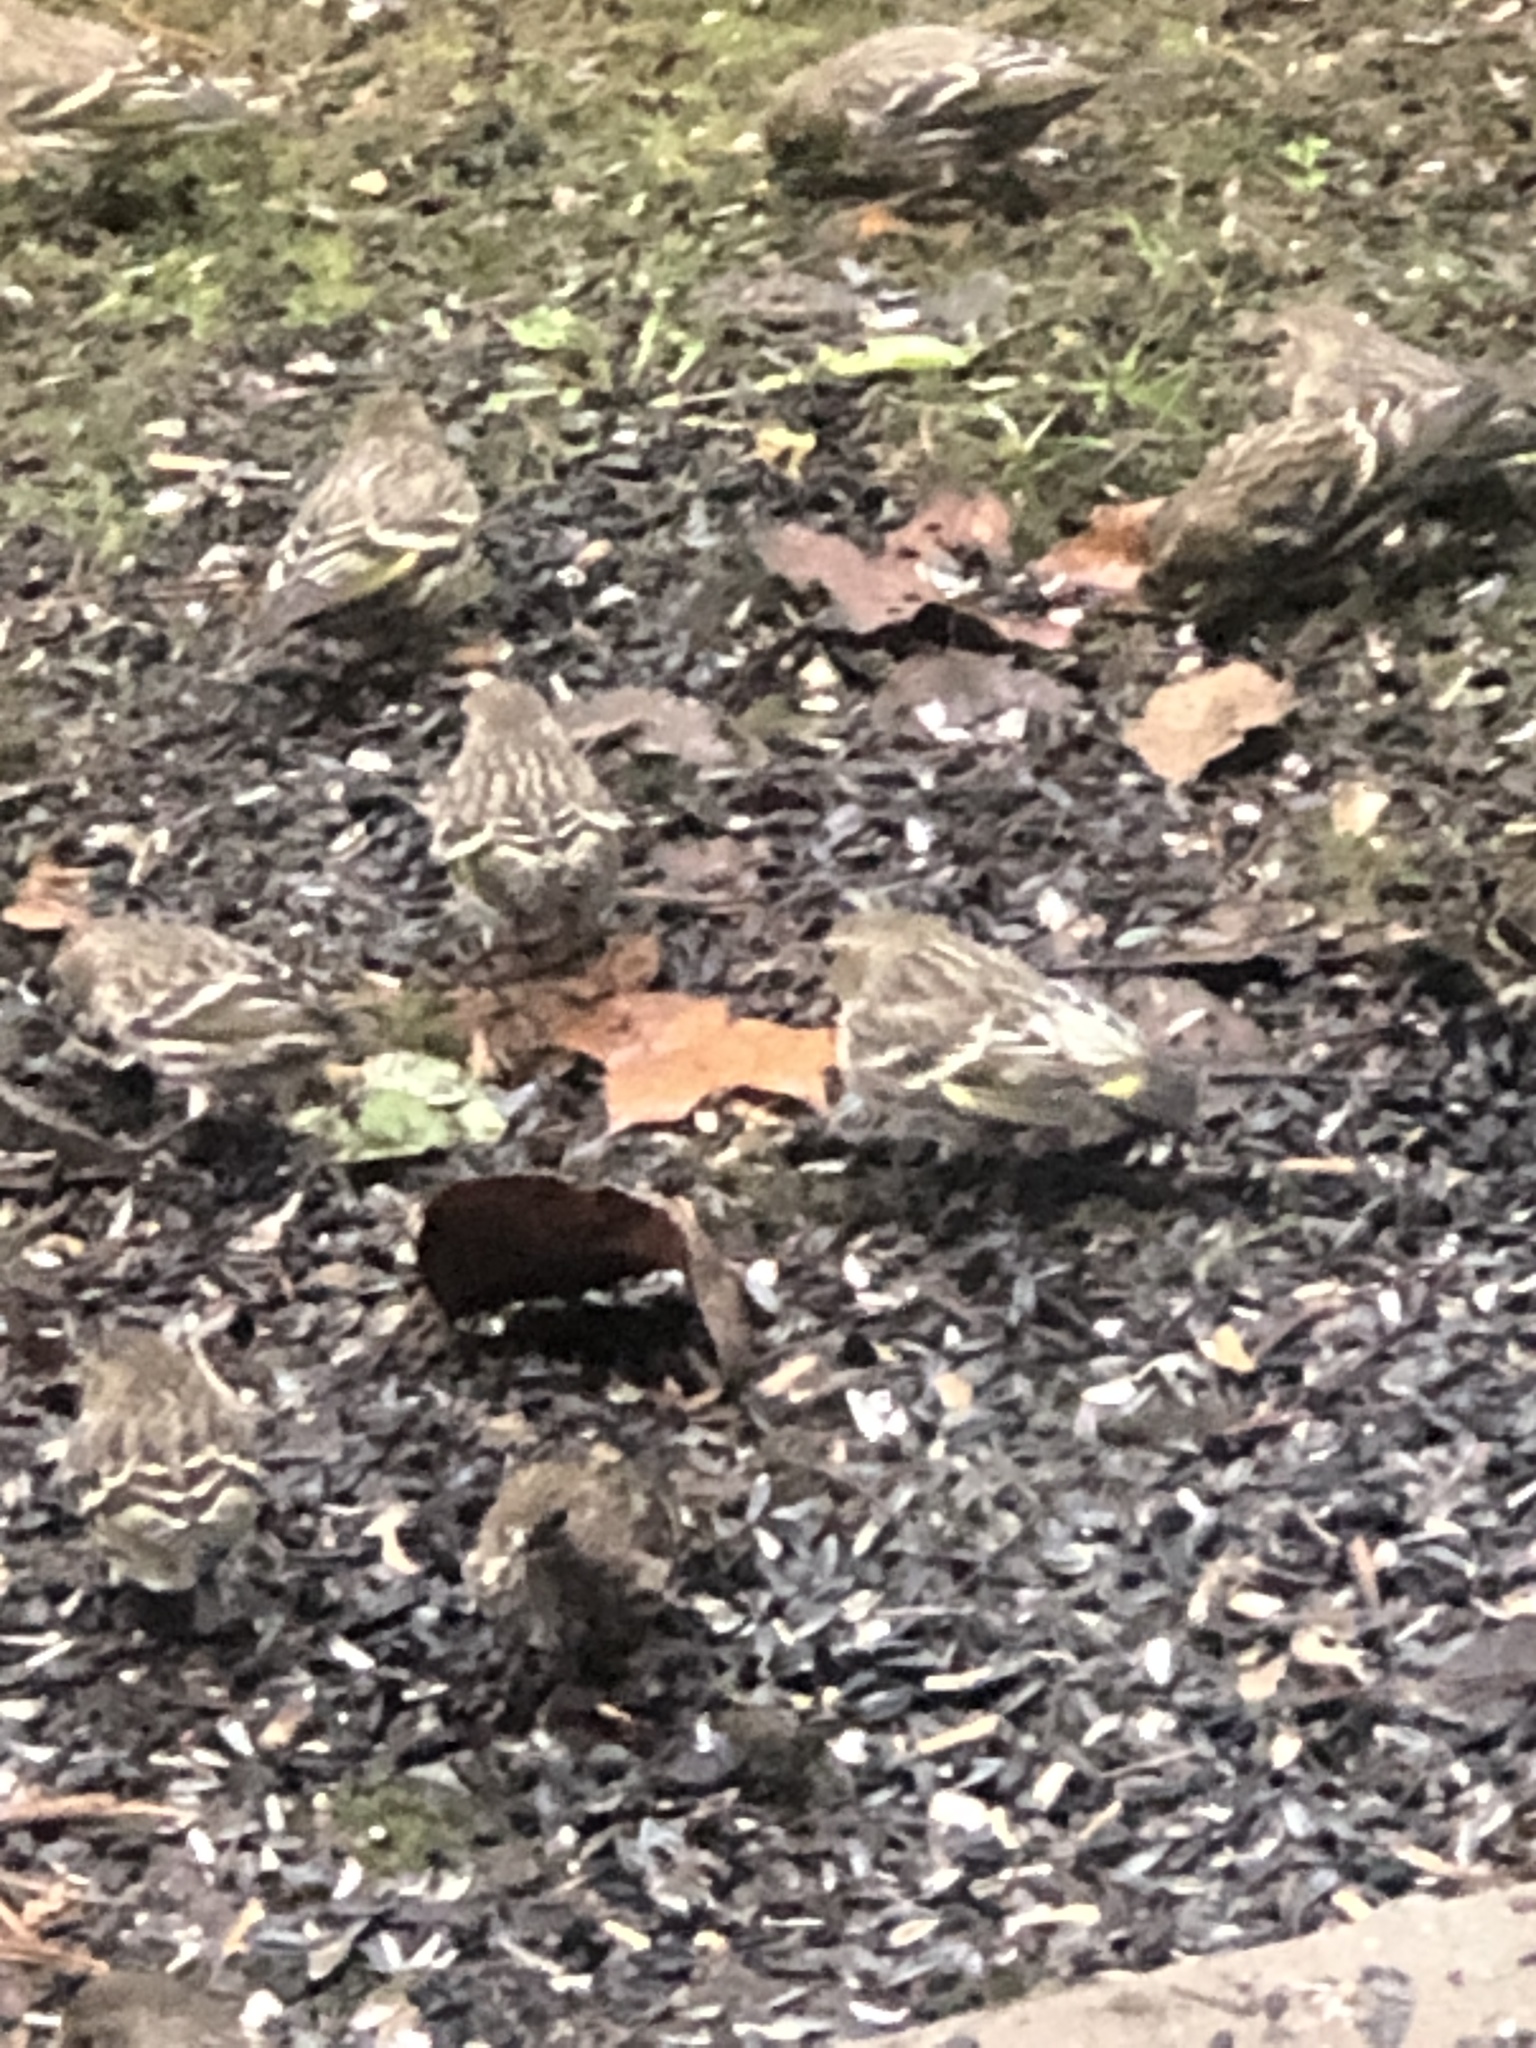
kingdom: Animalia
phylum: Chordata
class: Aves
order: Passeriformes
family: Fringillidae
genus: Spinus
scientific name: Spinus pinus
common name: Pine siskin
